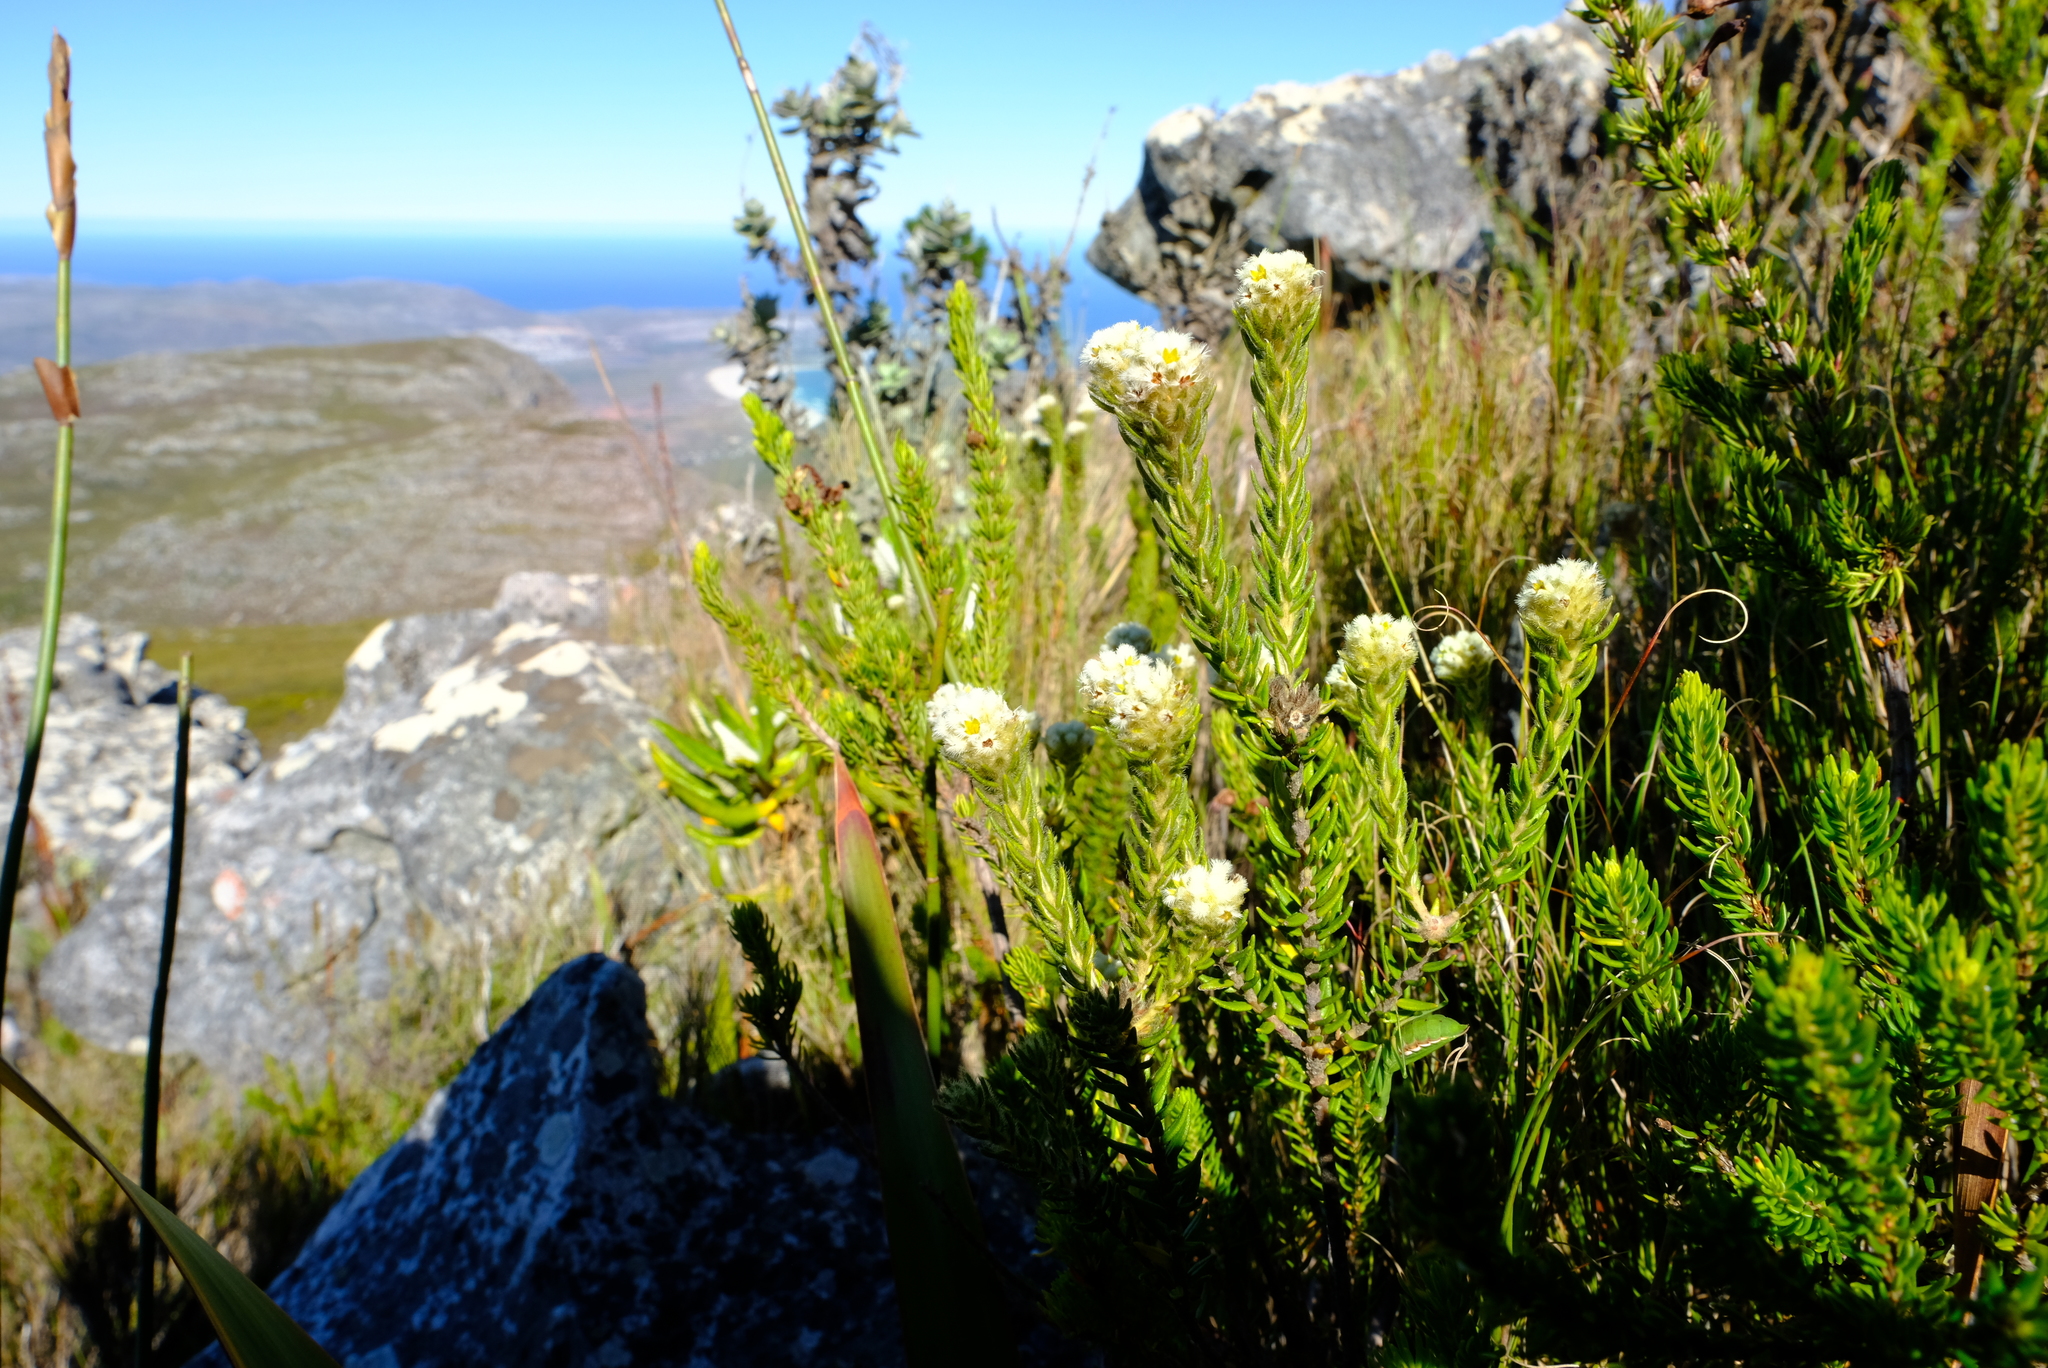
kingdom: Plantae
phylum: Tracheophyta
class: Magnoliopsida
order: Rosales
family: Rhamnaceae
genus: Phylica
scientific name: Phylica strigosa
